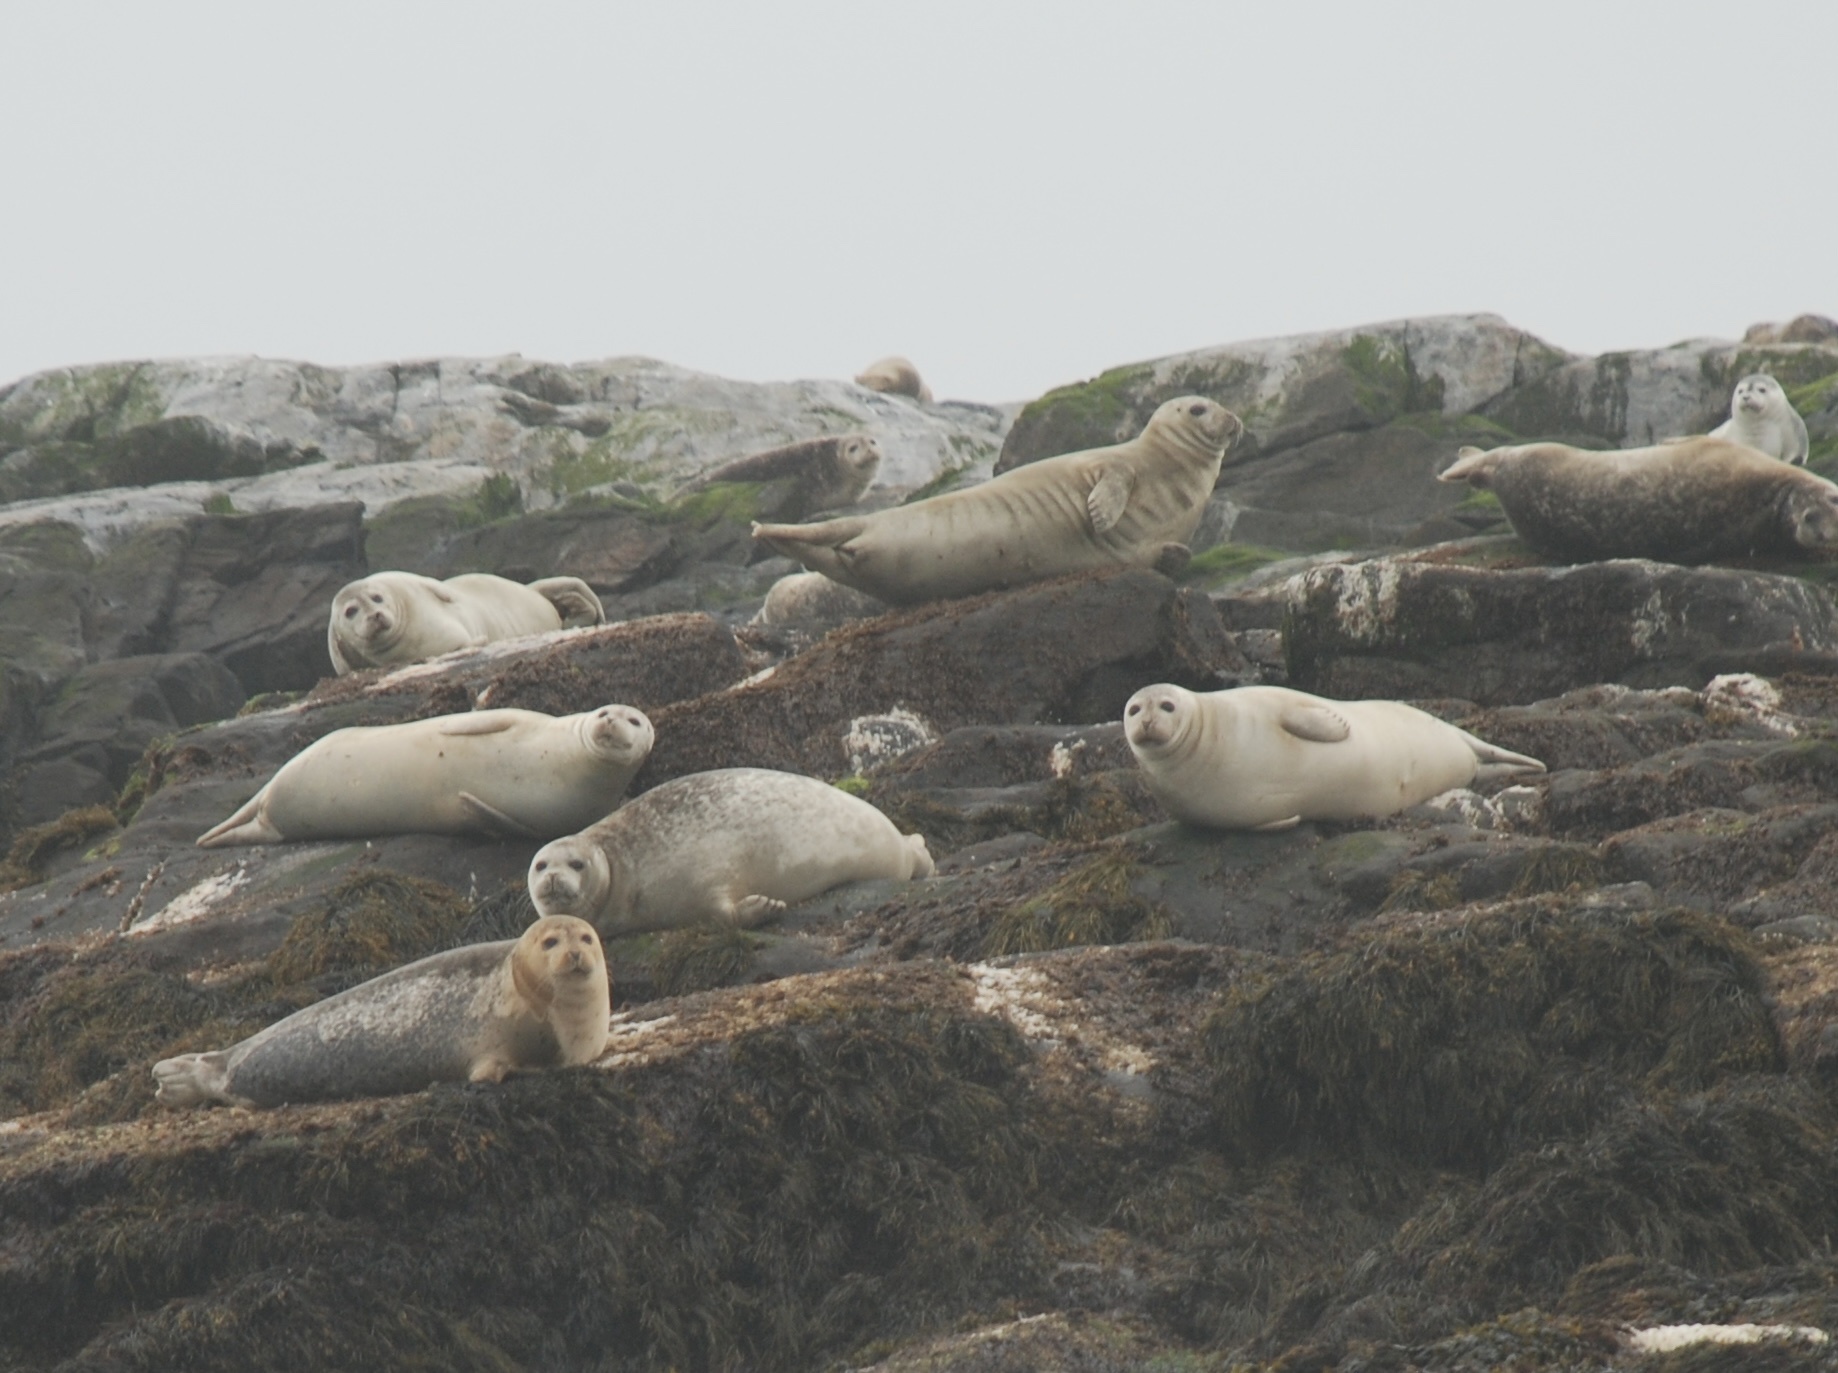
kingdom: Animalia
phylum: Chordata
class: Mammalia
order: Carnivora
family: Phocidae
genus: Phoca
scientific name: Phoca vitulina
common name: Harbor seal
